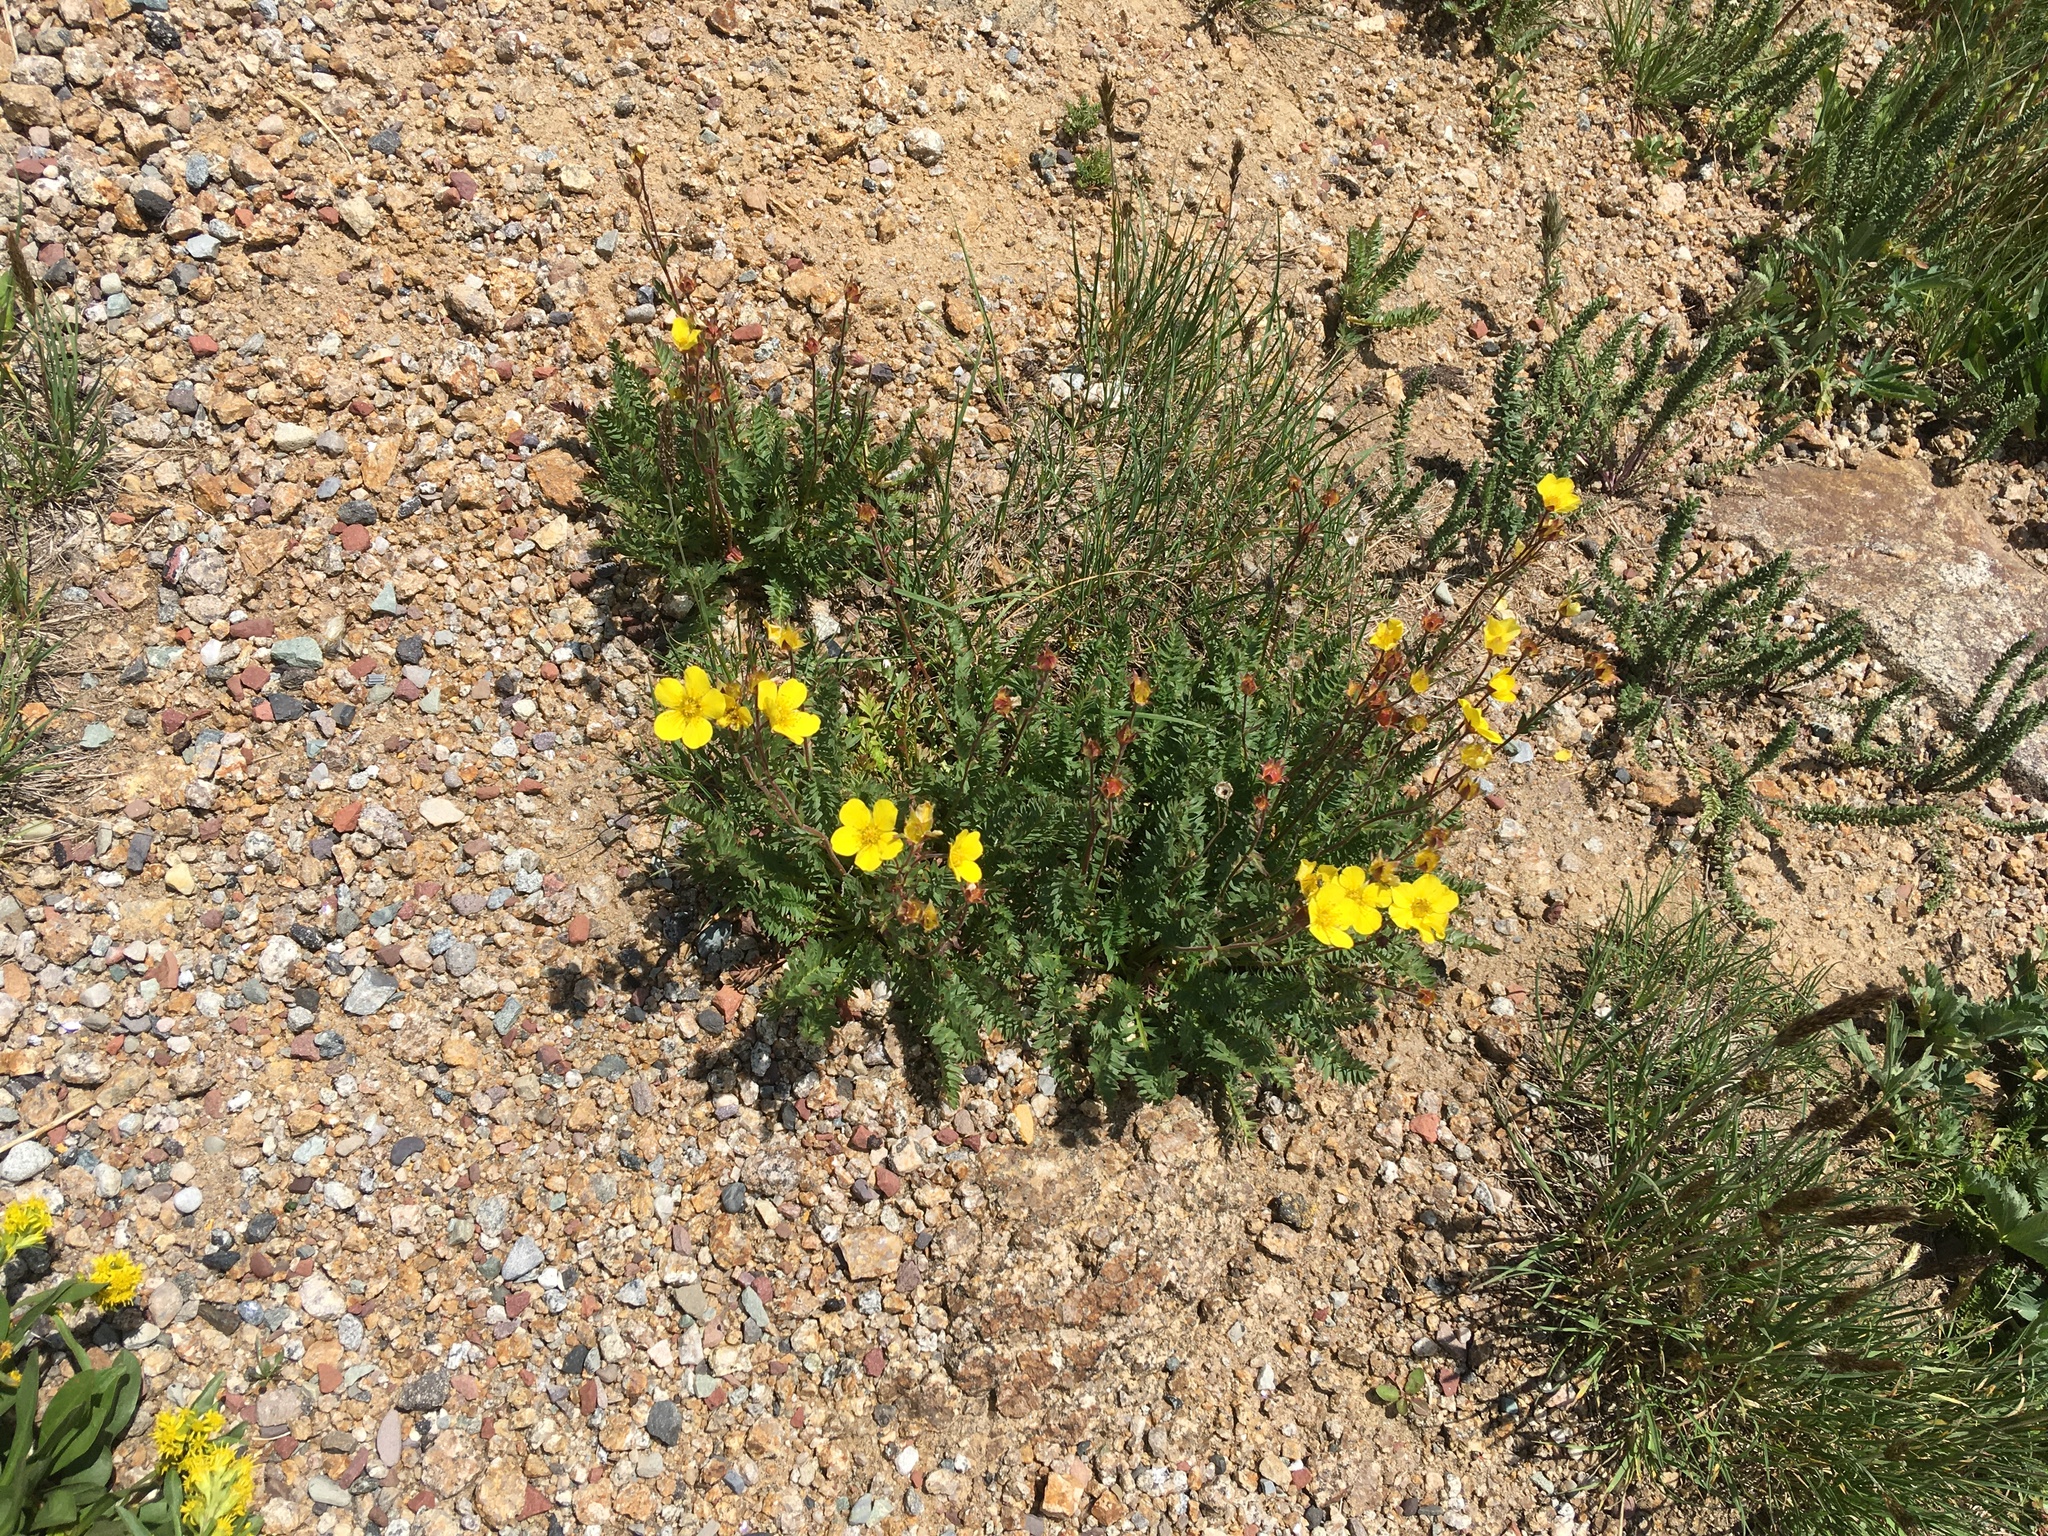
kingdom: Plantae
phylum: Tracheophyta
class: Magnoliopsida
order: Rosales
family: Rosaceae
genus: Geum
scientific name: Geum rossii
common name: Alpine avens
